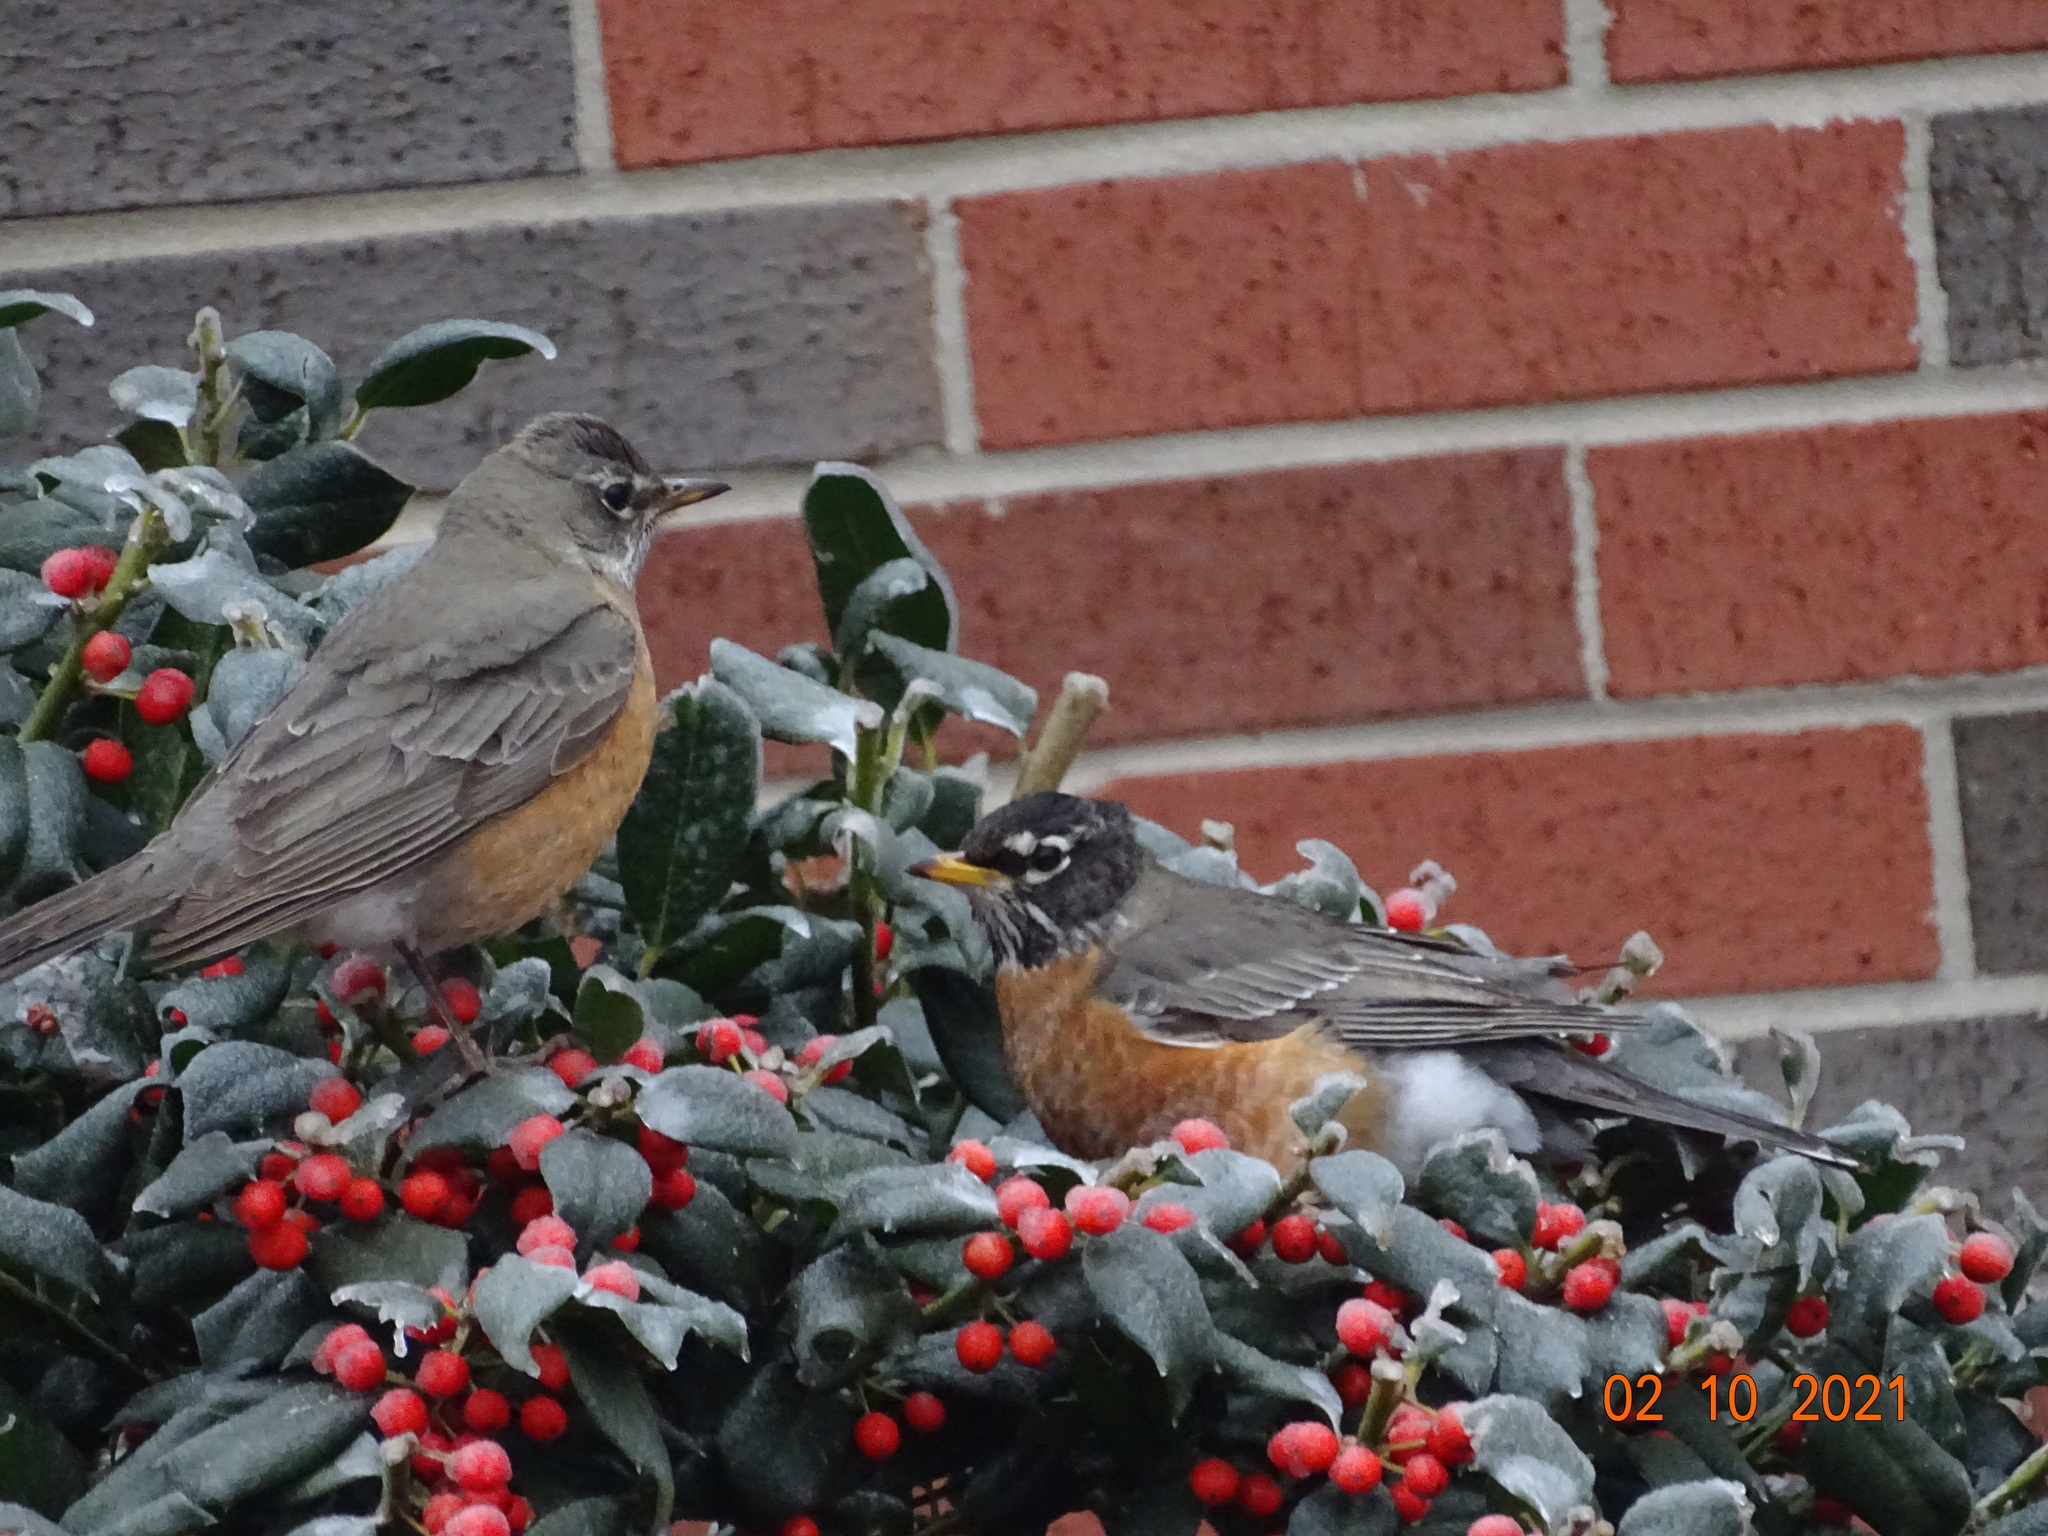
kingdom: Animalia
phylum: Chordata
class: Aves
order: Passeriformes
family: Turdidae
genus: Turdus
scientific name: Turdus migratorius
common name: American robin
